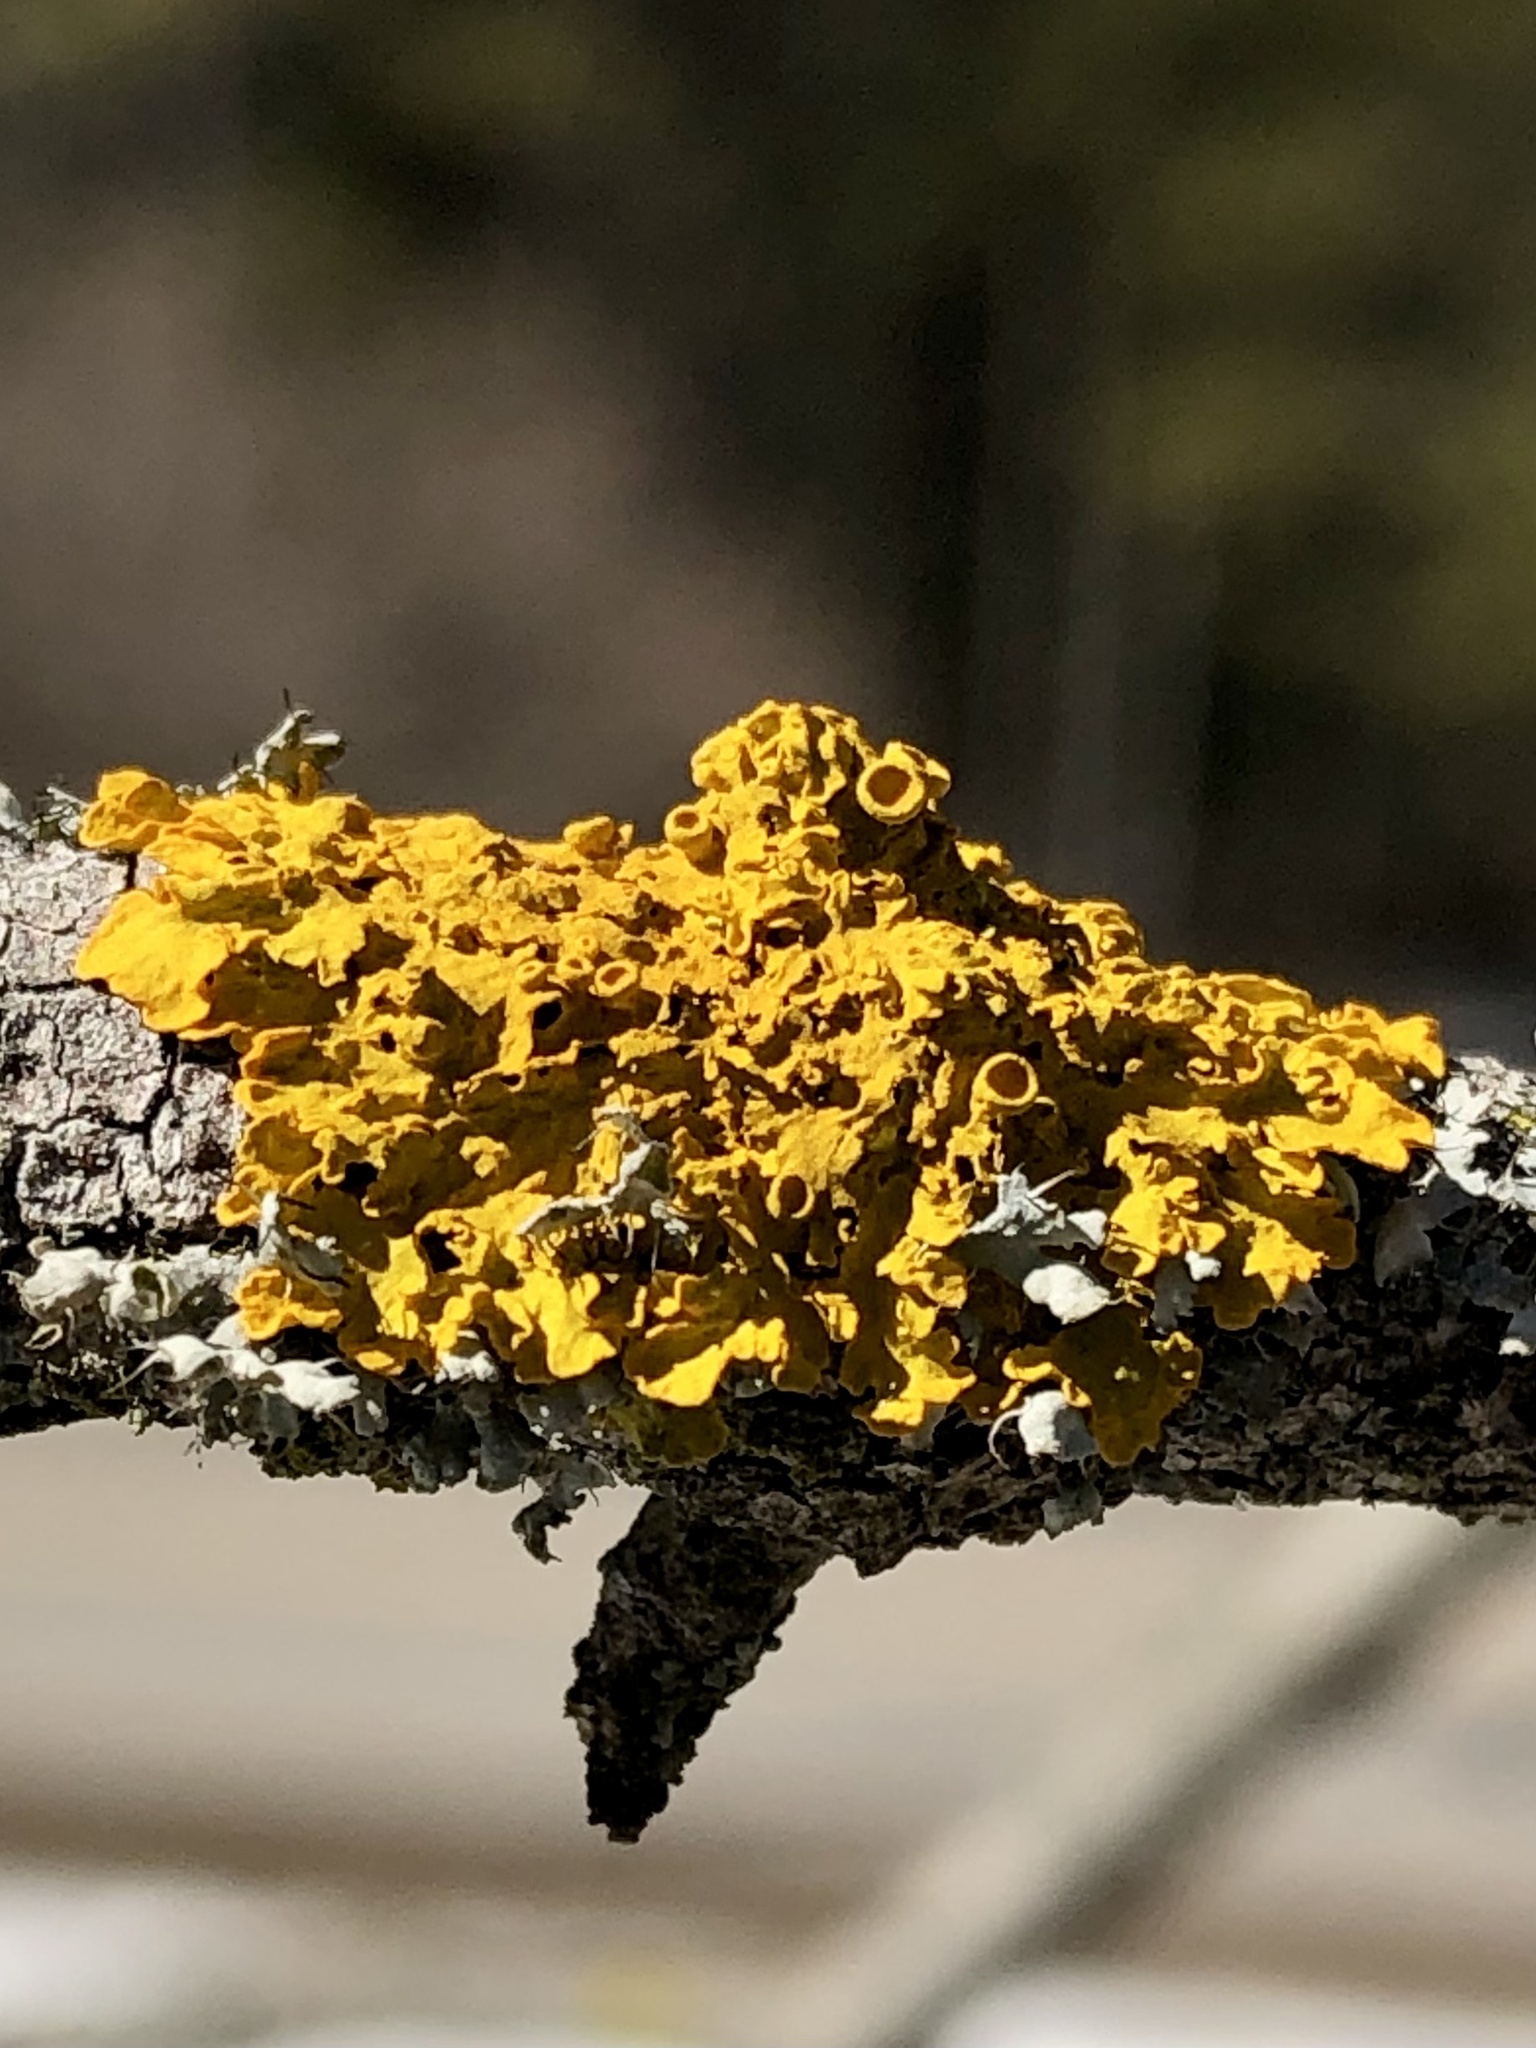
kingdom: Fungi
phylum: Ascomycota
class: Lecanoromycetes
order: Teloschistales
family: Teloschistaceae
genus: Xanthoria
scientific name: Xanthoria parietina
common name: Common orange lichen
